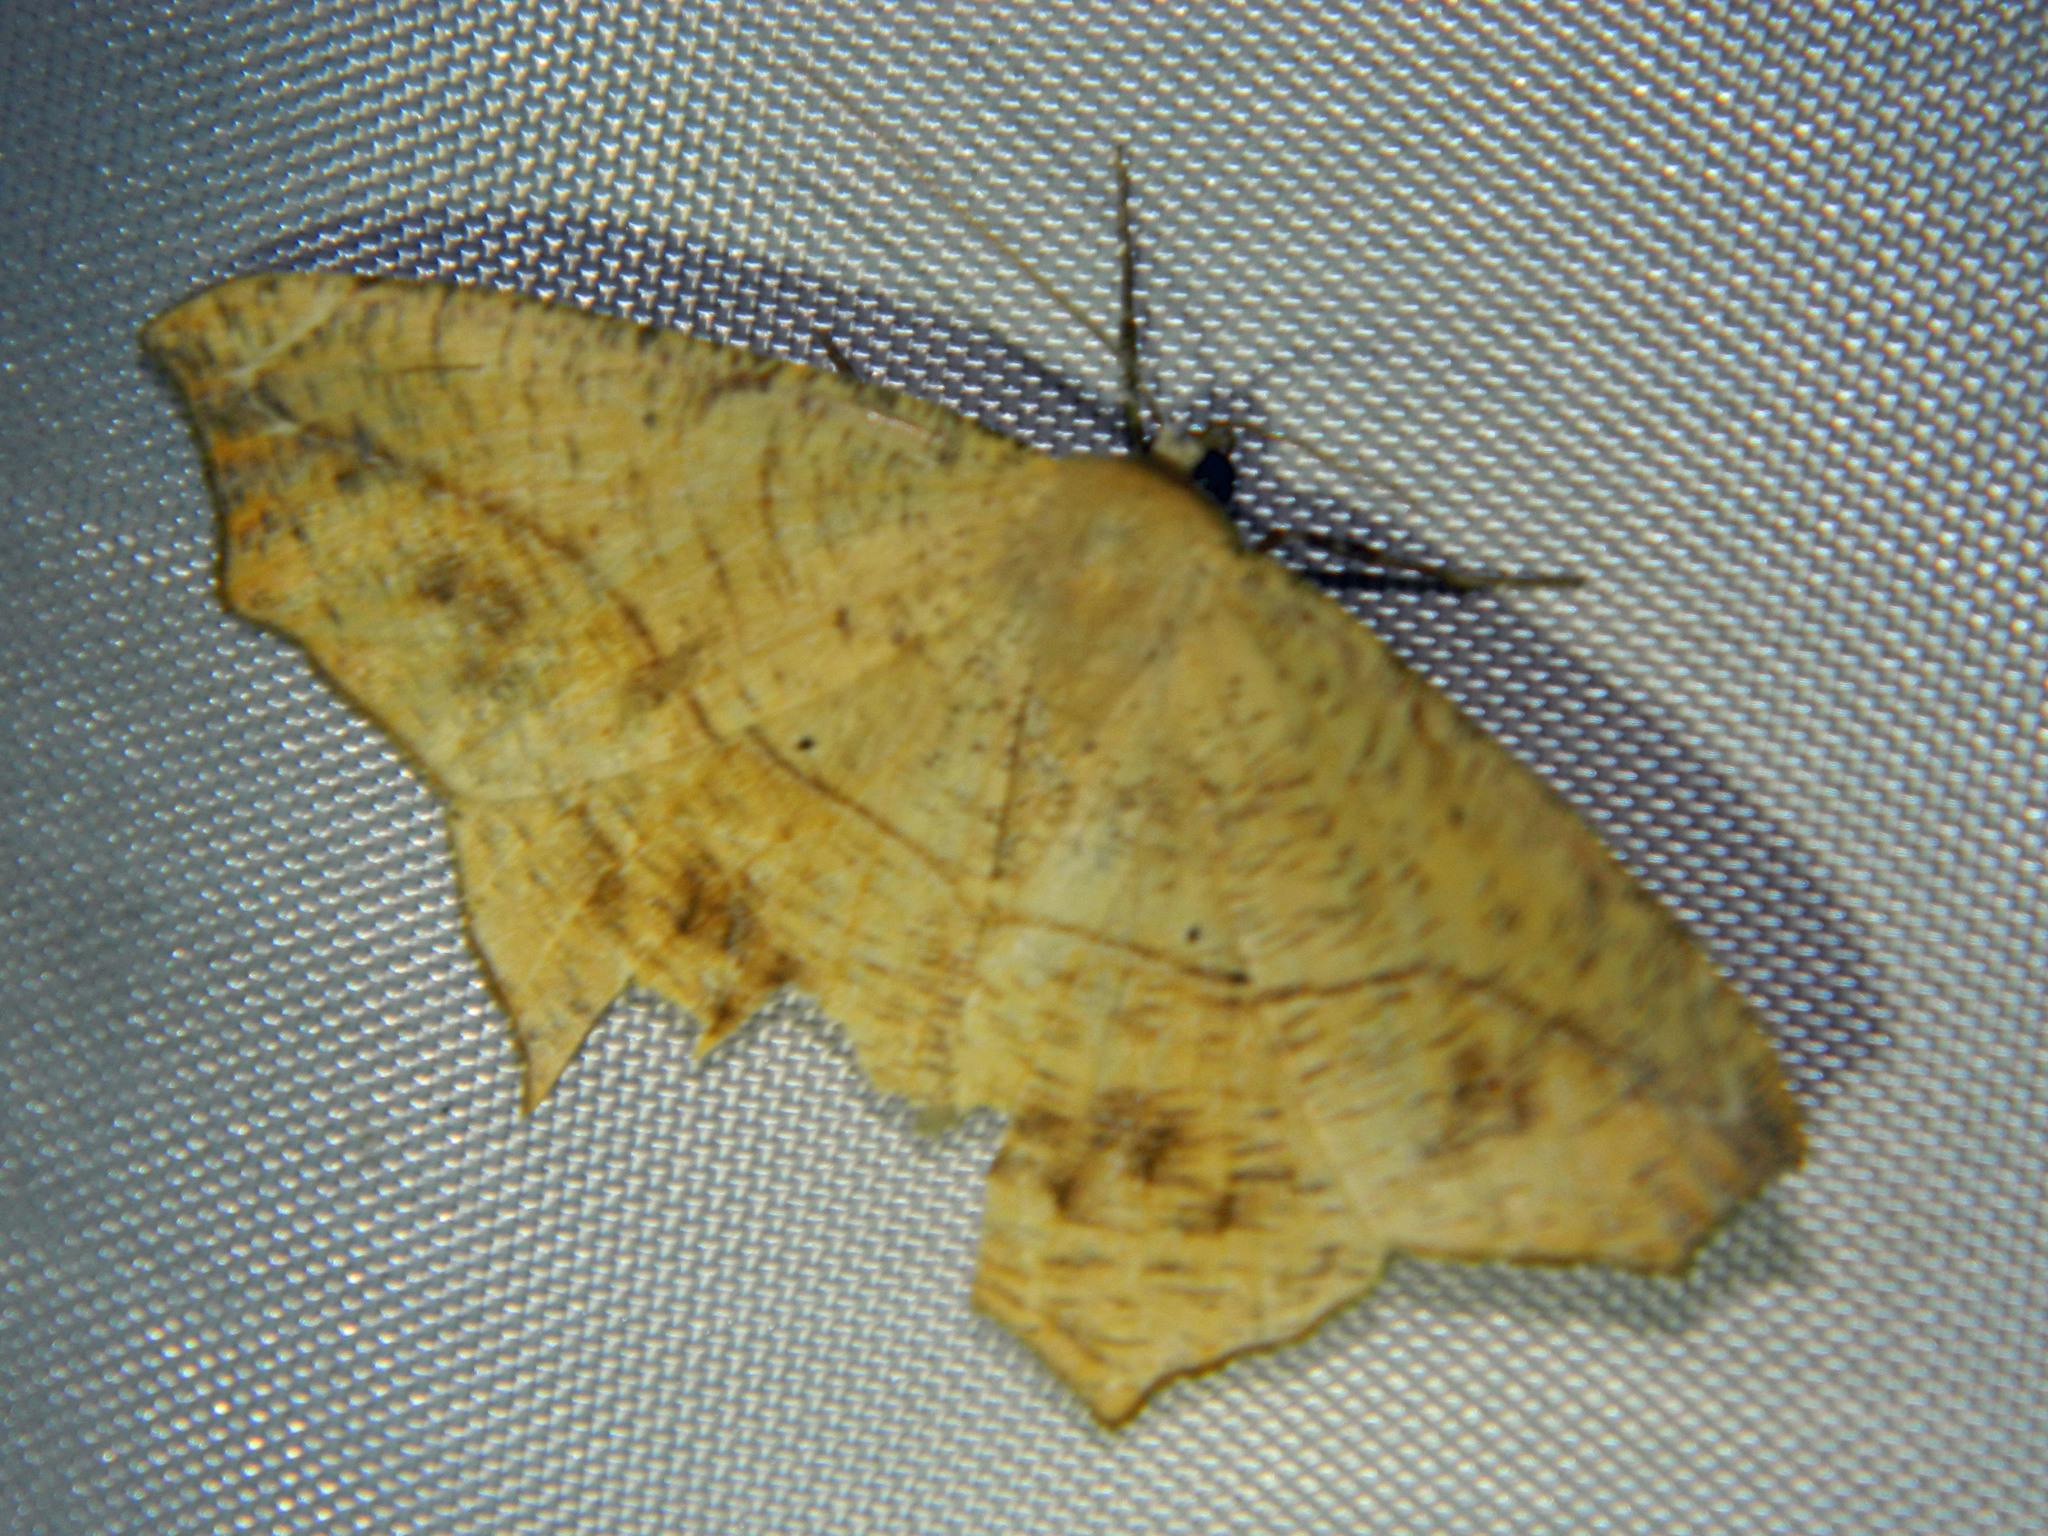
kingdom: Animalia
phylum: Arthropoda
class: Insecta
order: Lepidoptera
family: Geometridae
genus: Prochoerodes
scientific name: Prochoerodes lineola
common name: Large maple spanworm
